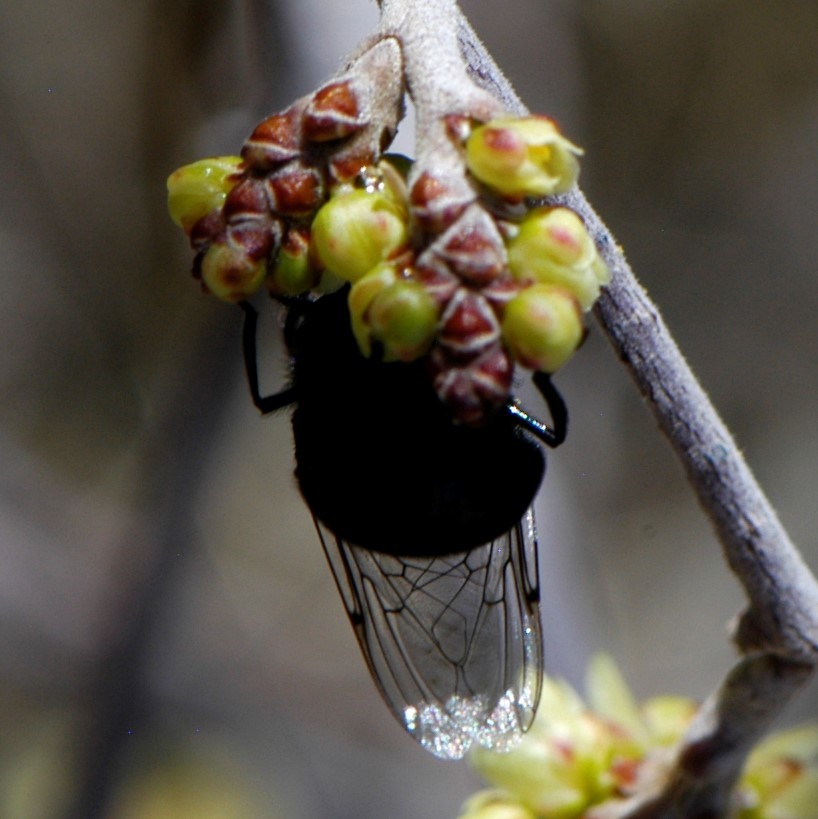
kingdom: Animalia
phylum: Arthropoda
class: Insecta
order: Diptera
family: Syrphidae
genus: Copestylum
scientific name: Copestylum comstocki
